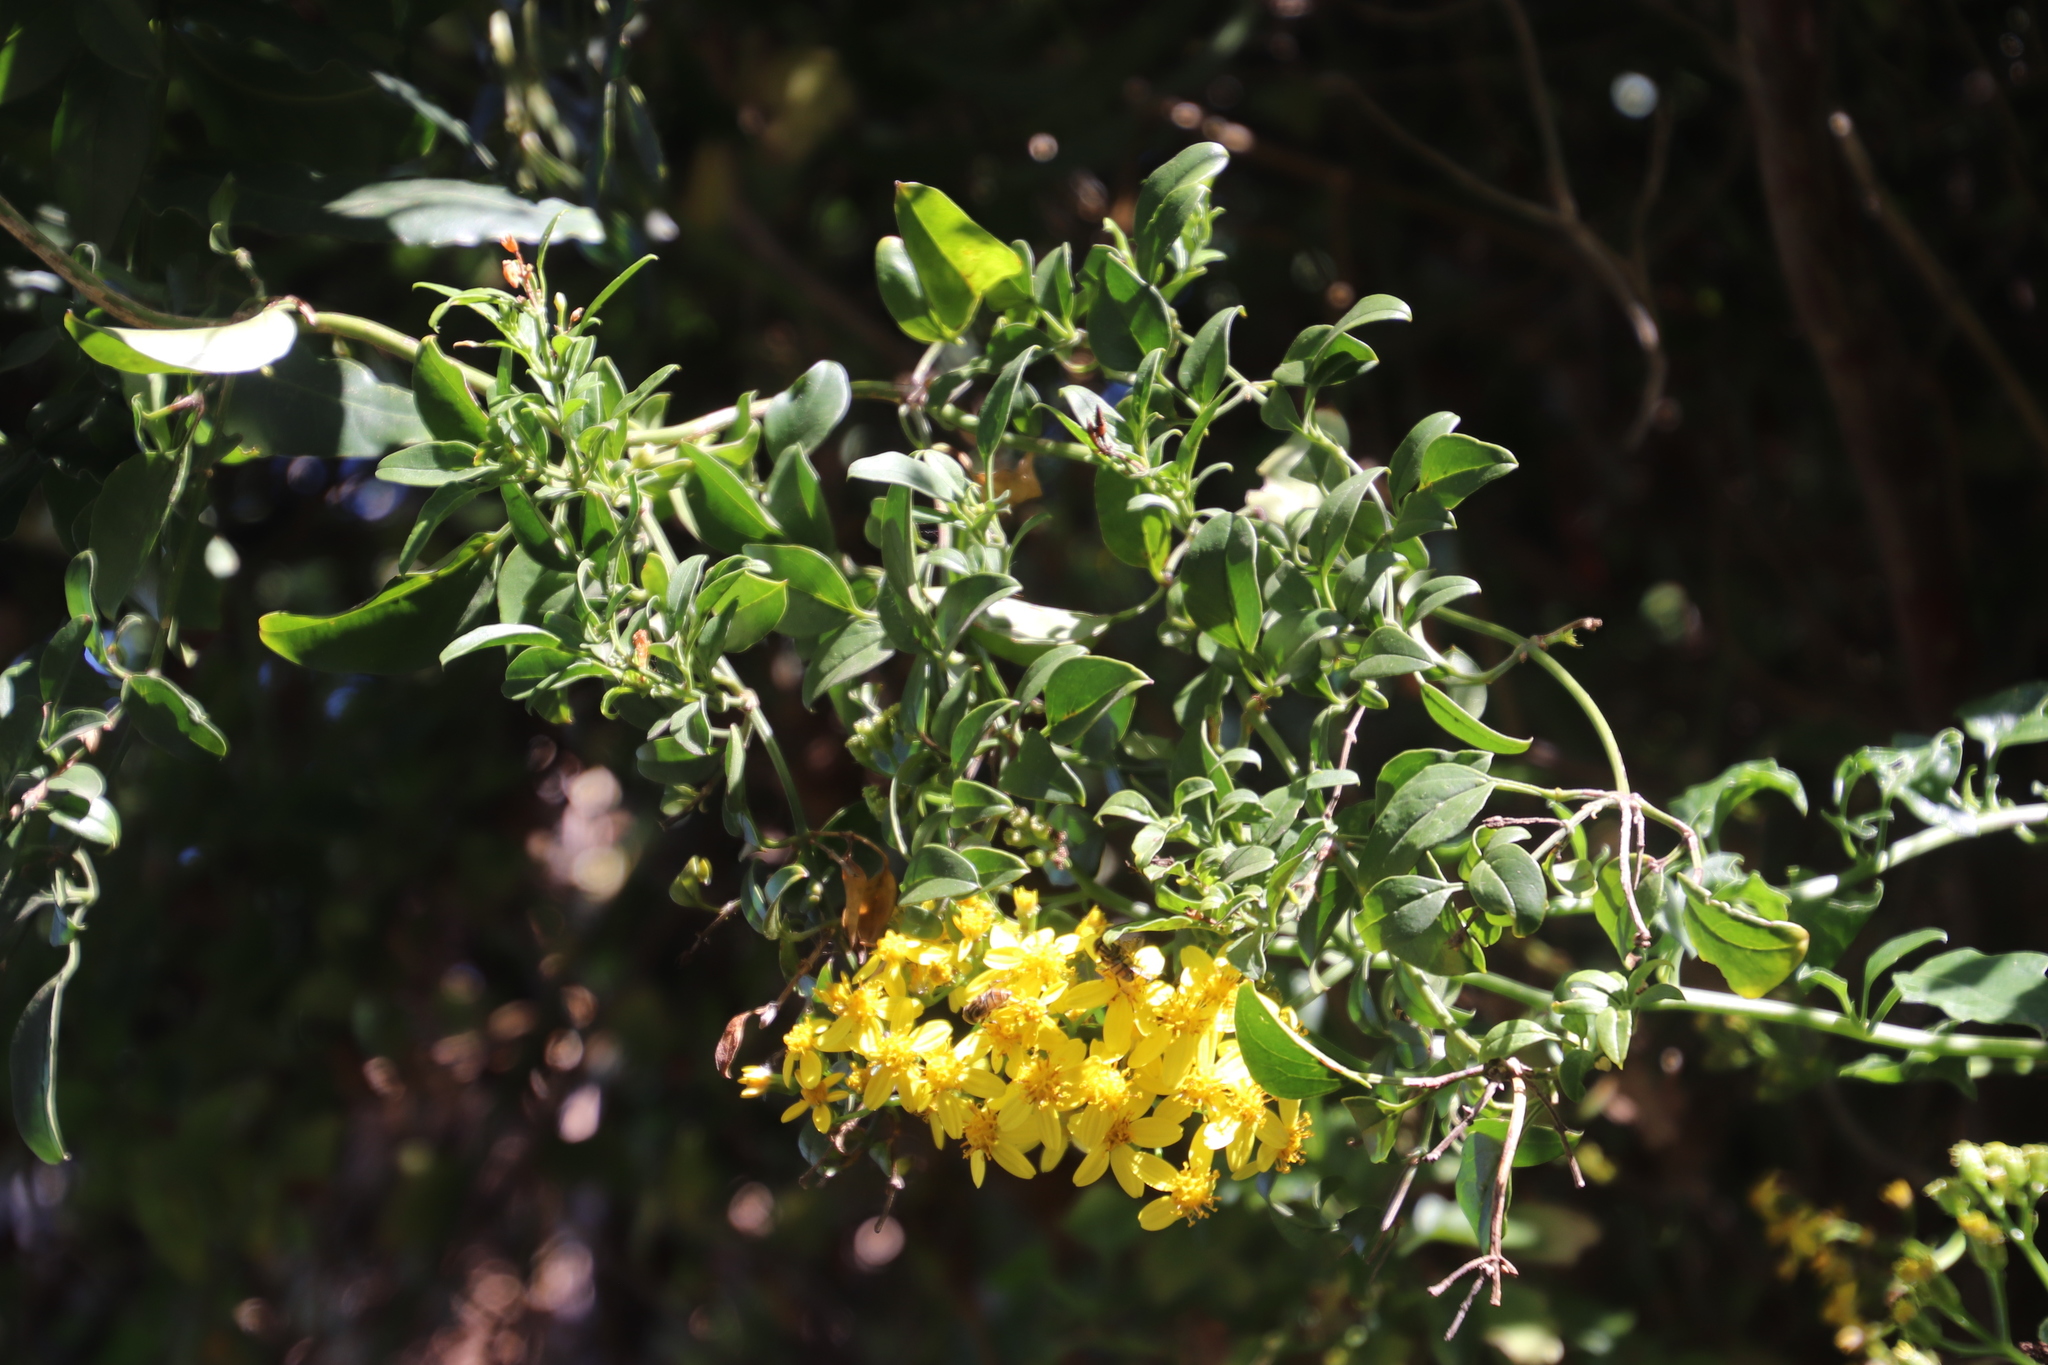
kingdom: Plantae
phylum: Tracheophyta
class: Magnoliopsida
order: Lamiales
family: Oleaceae
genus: Jasminum
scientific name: Jasminum polyanthum
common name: Pink jasmine
